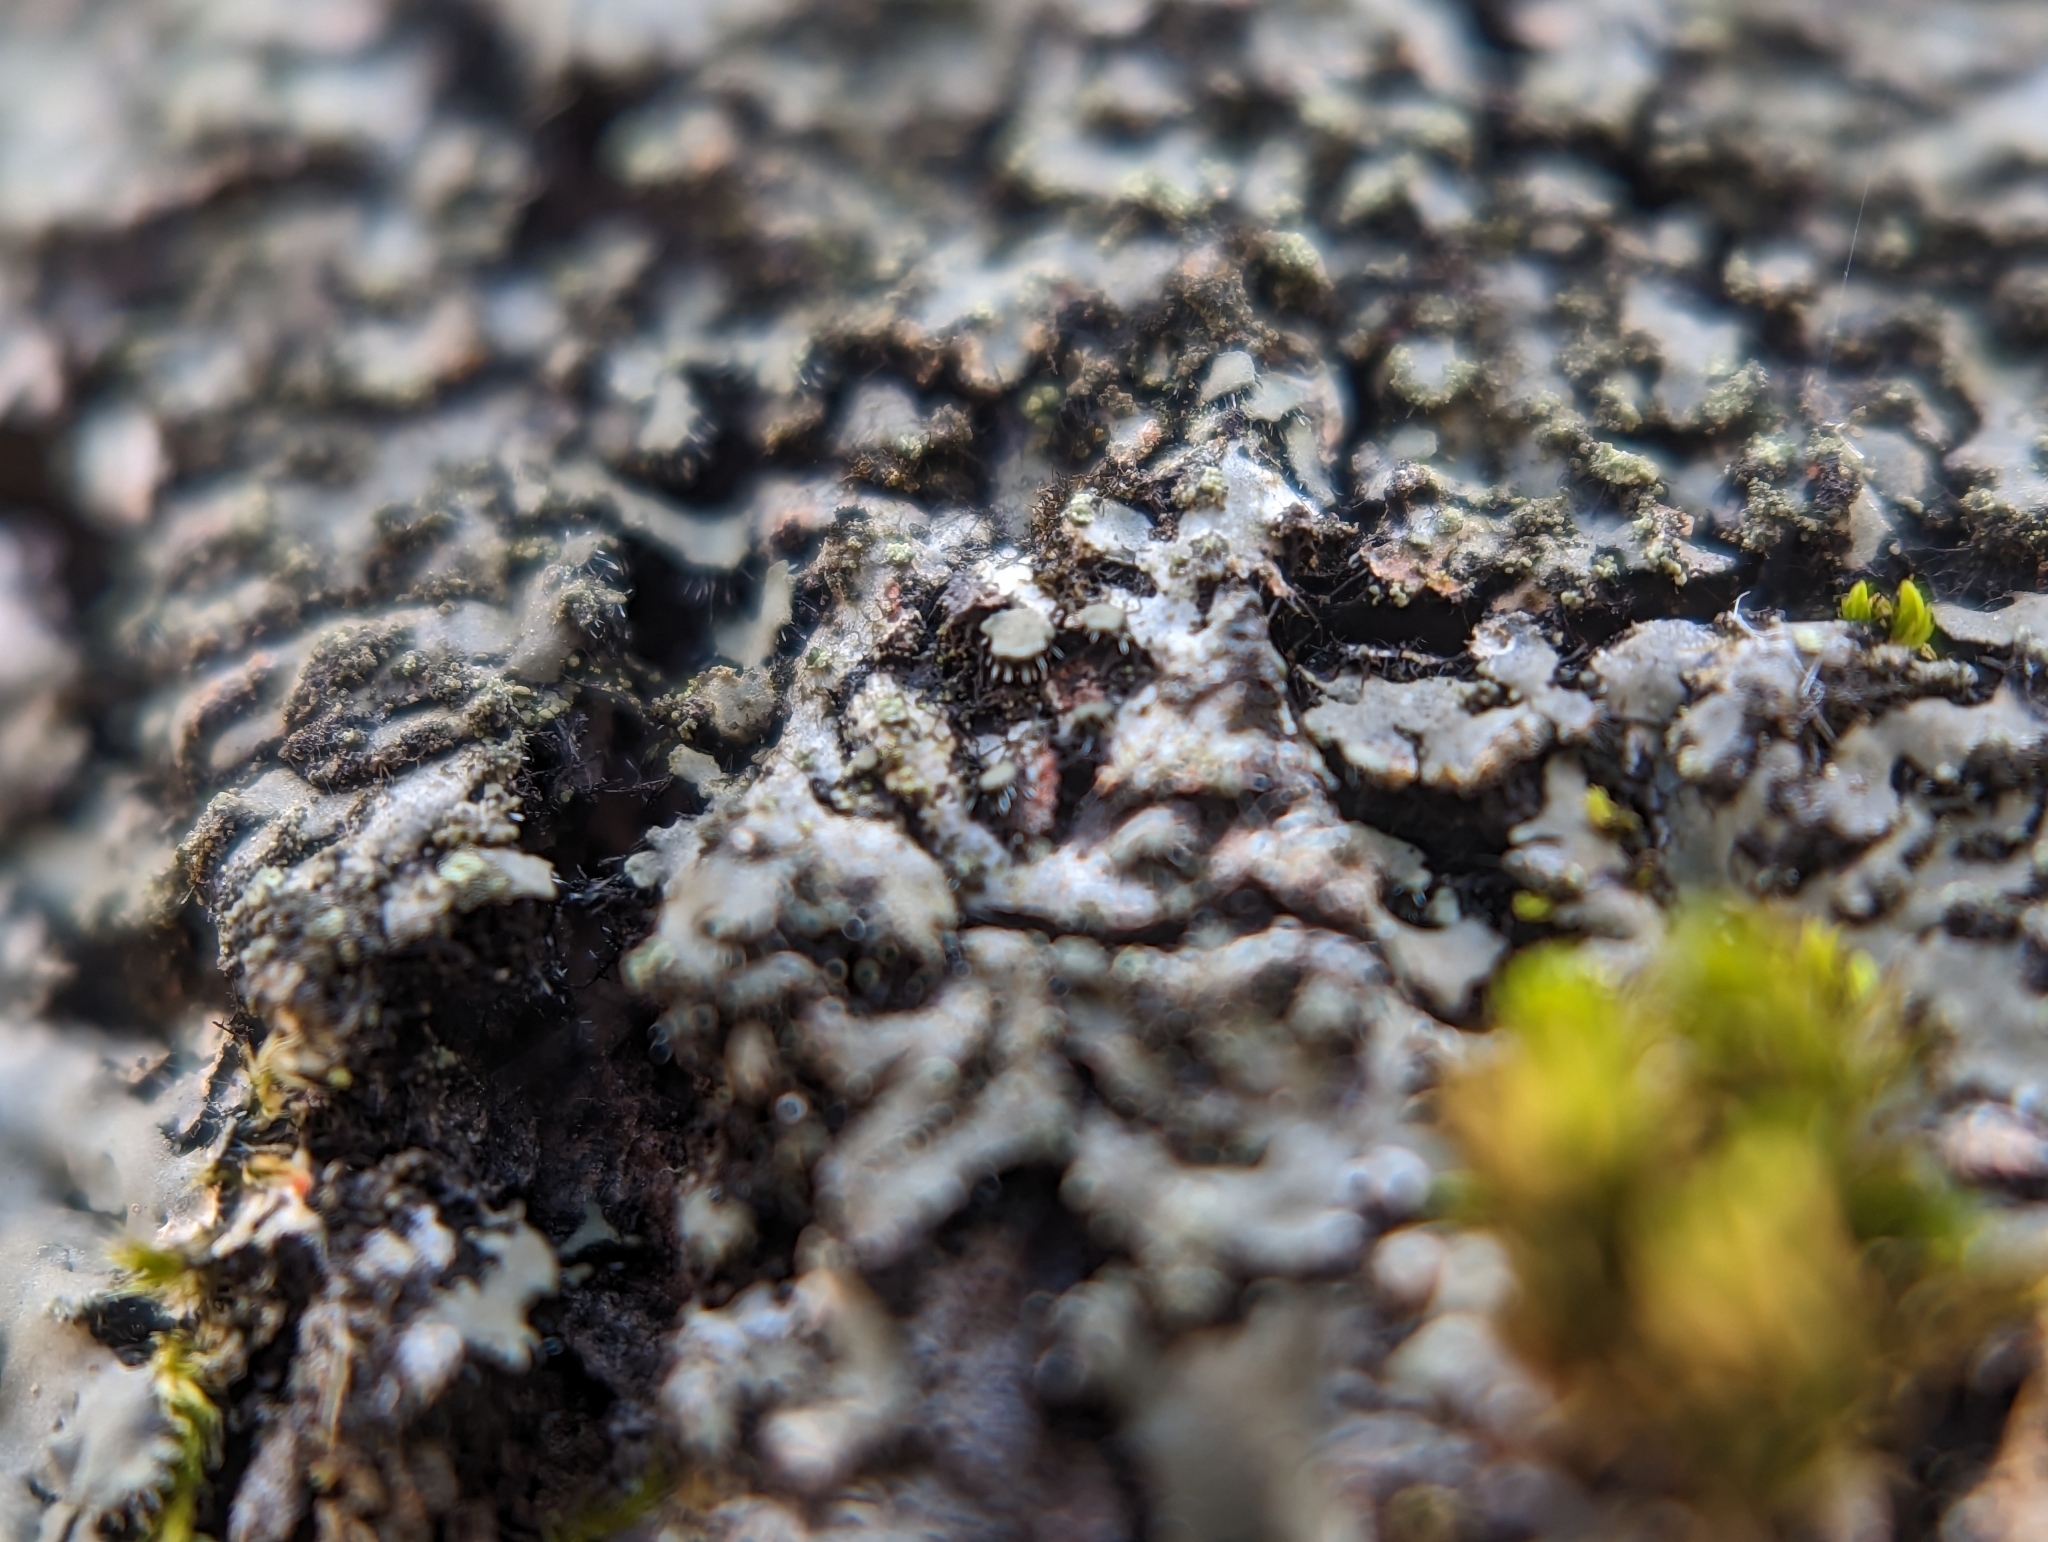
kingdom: Fungi
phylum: Ascomycota
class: Lecanoromycetes
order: Caliciales
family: Physciaceae
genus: Phaeophyscia
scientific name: Phaeophyscia rubropulchra
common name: Orange-cored shadow lichen
